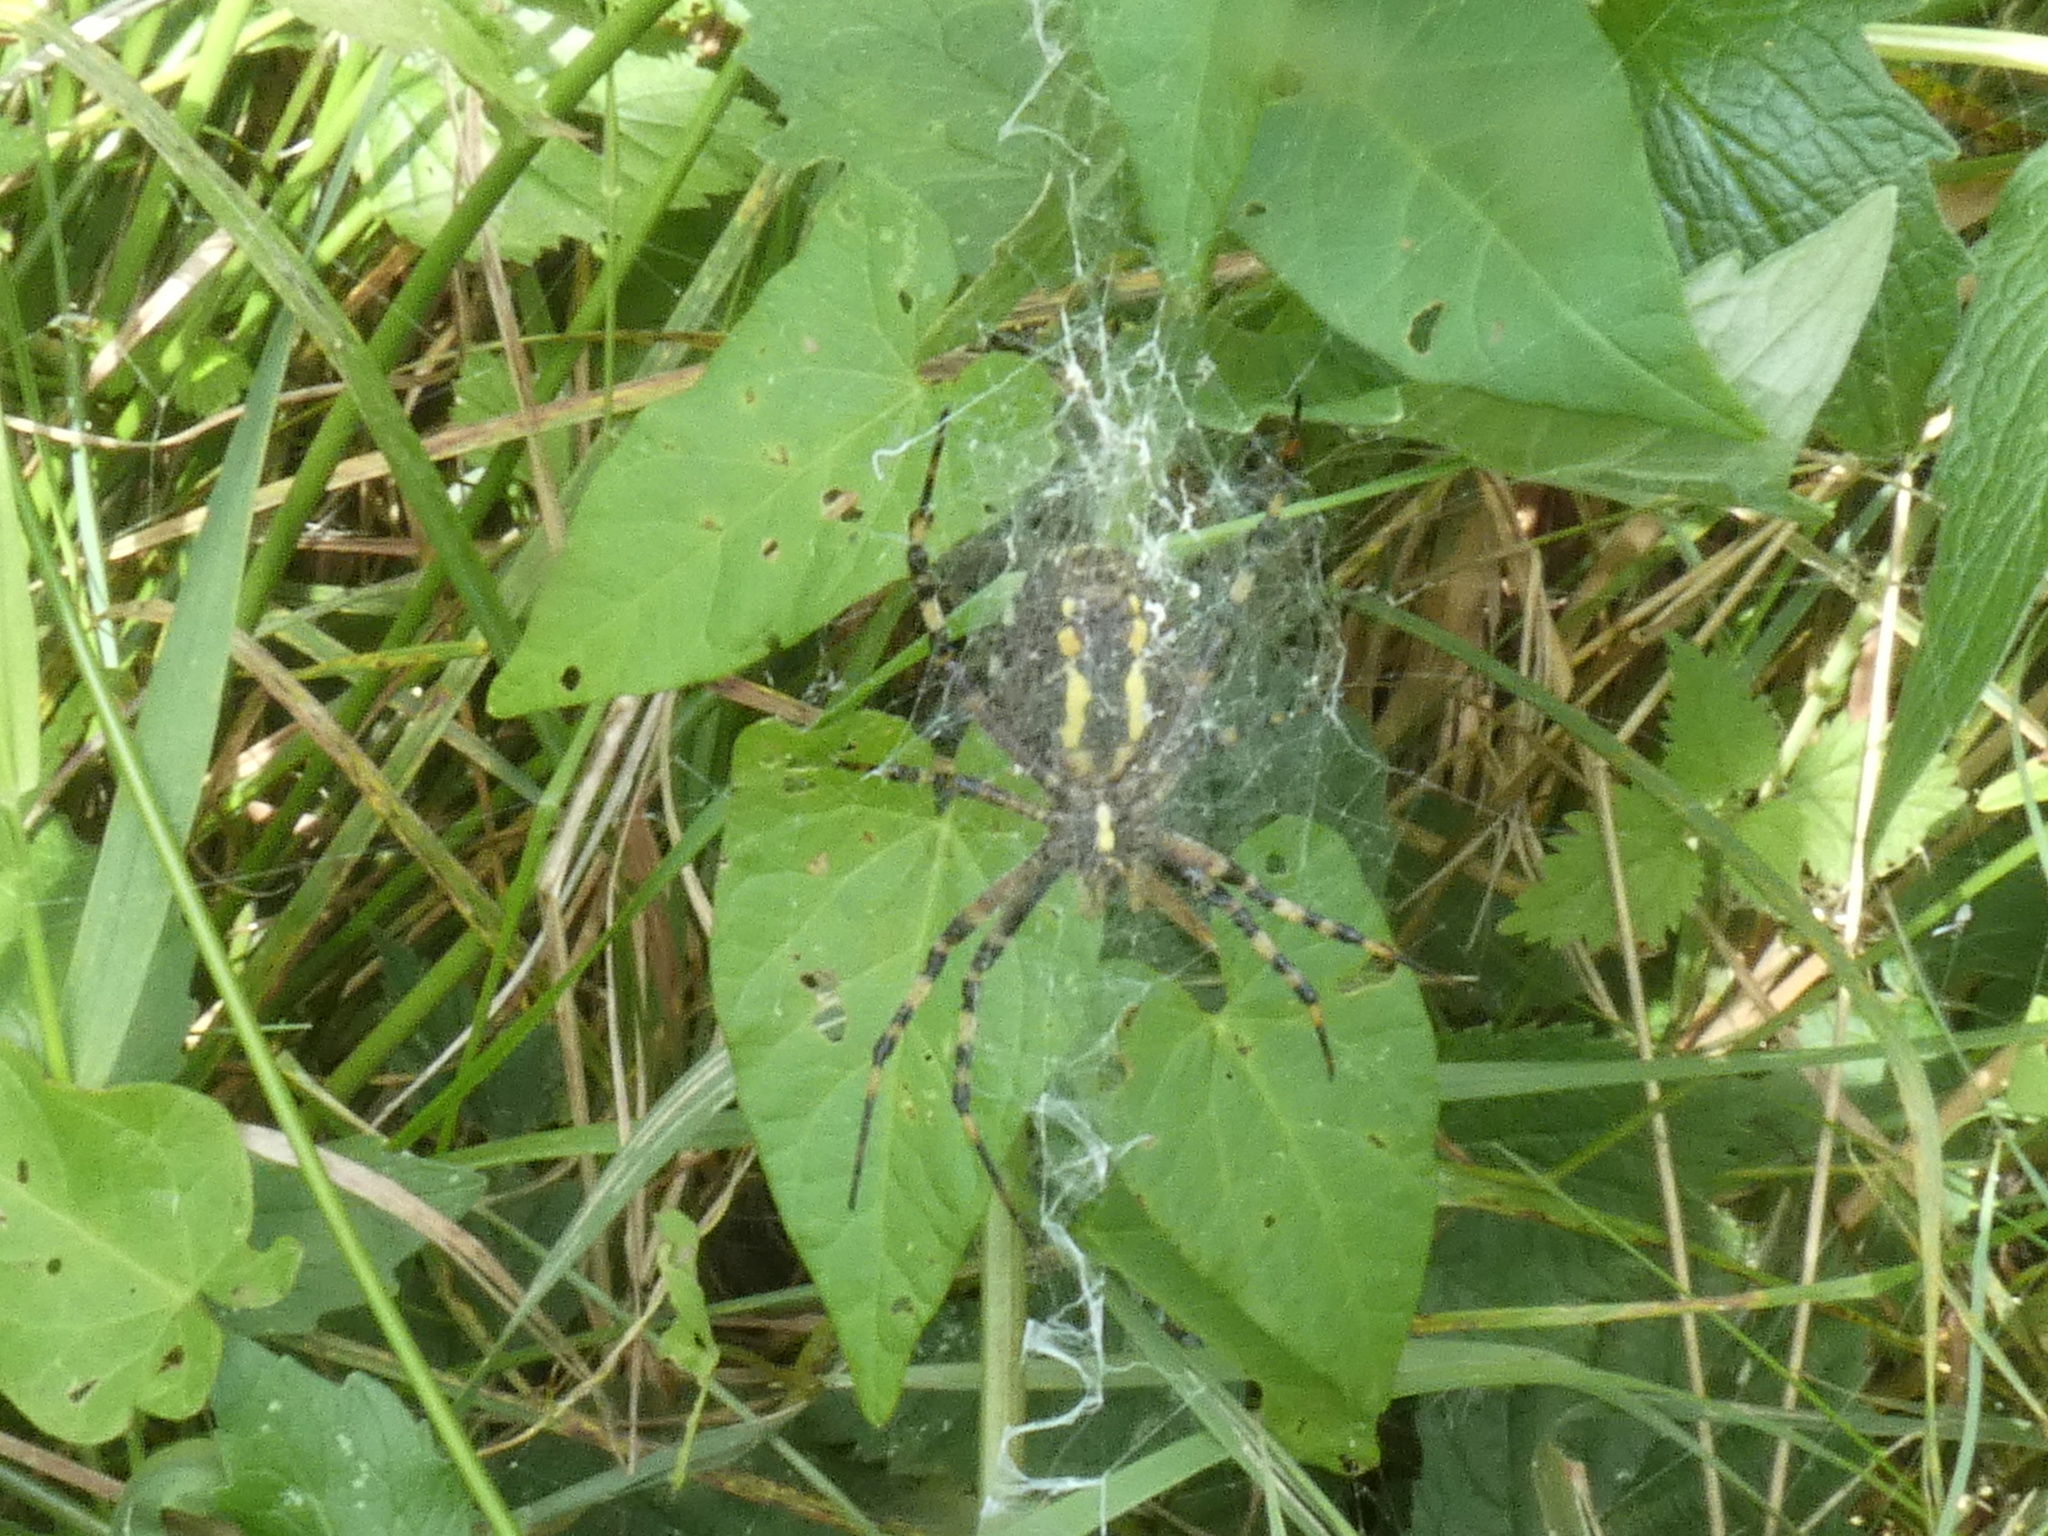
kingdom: Animalia
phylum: Arthropoda
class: Arachnida
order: Araneae
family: Araneidae
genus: Argiope
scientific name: Argiope bruennichi
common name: Wasp spider
